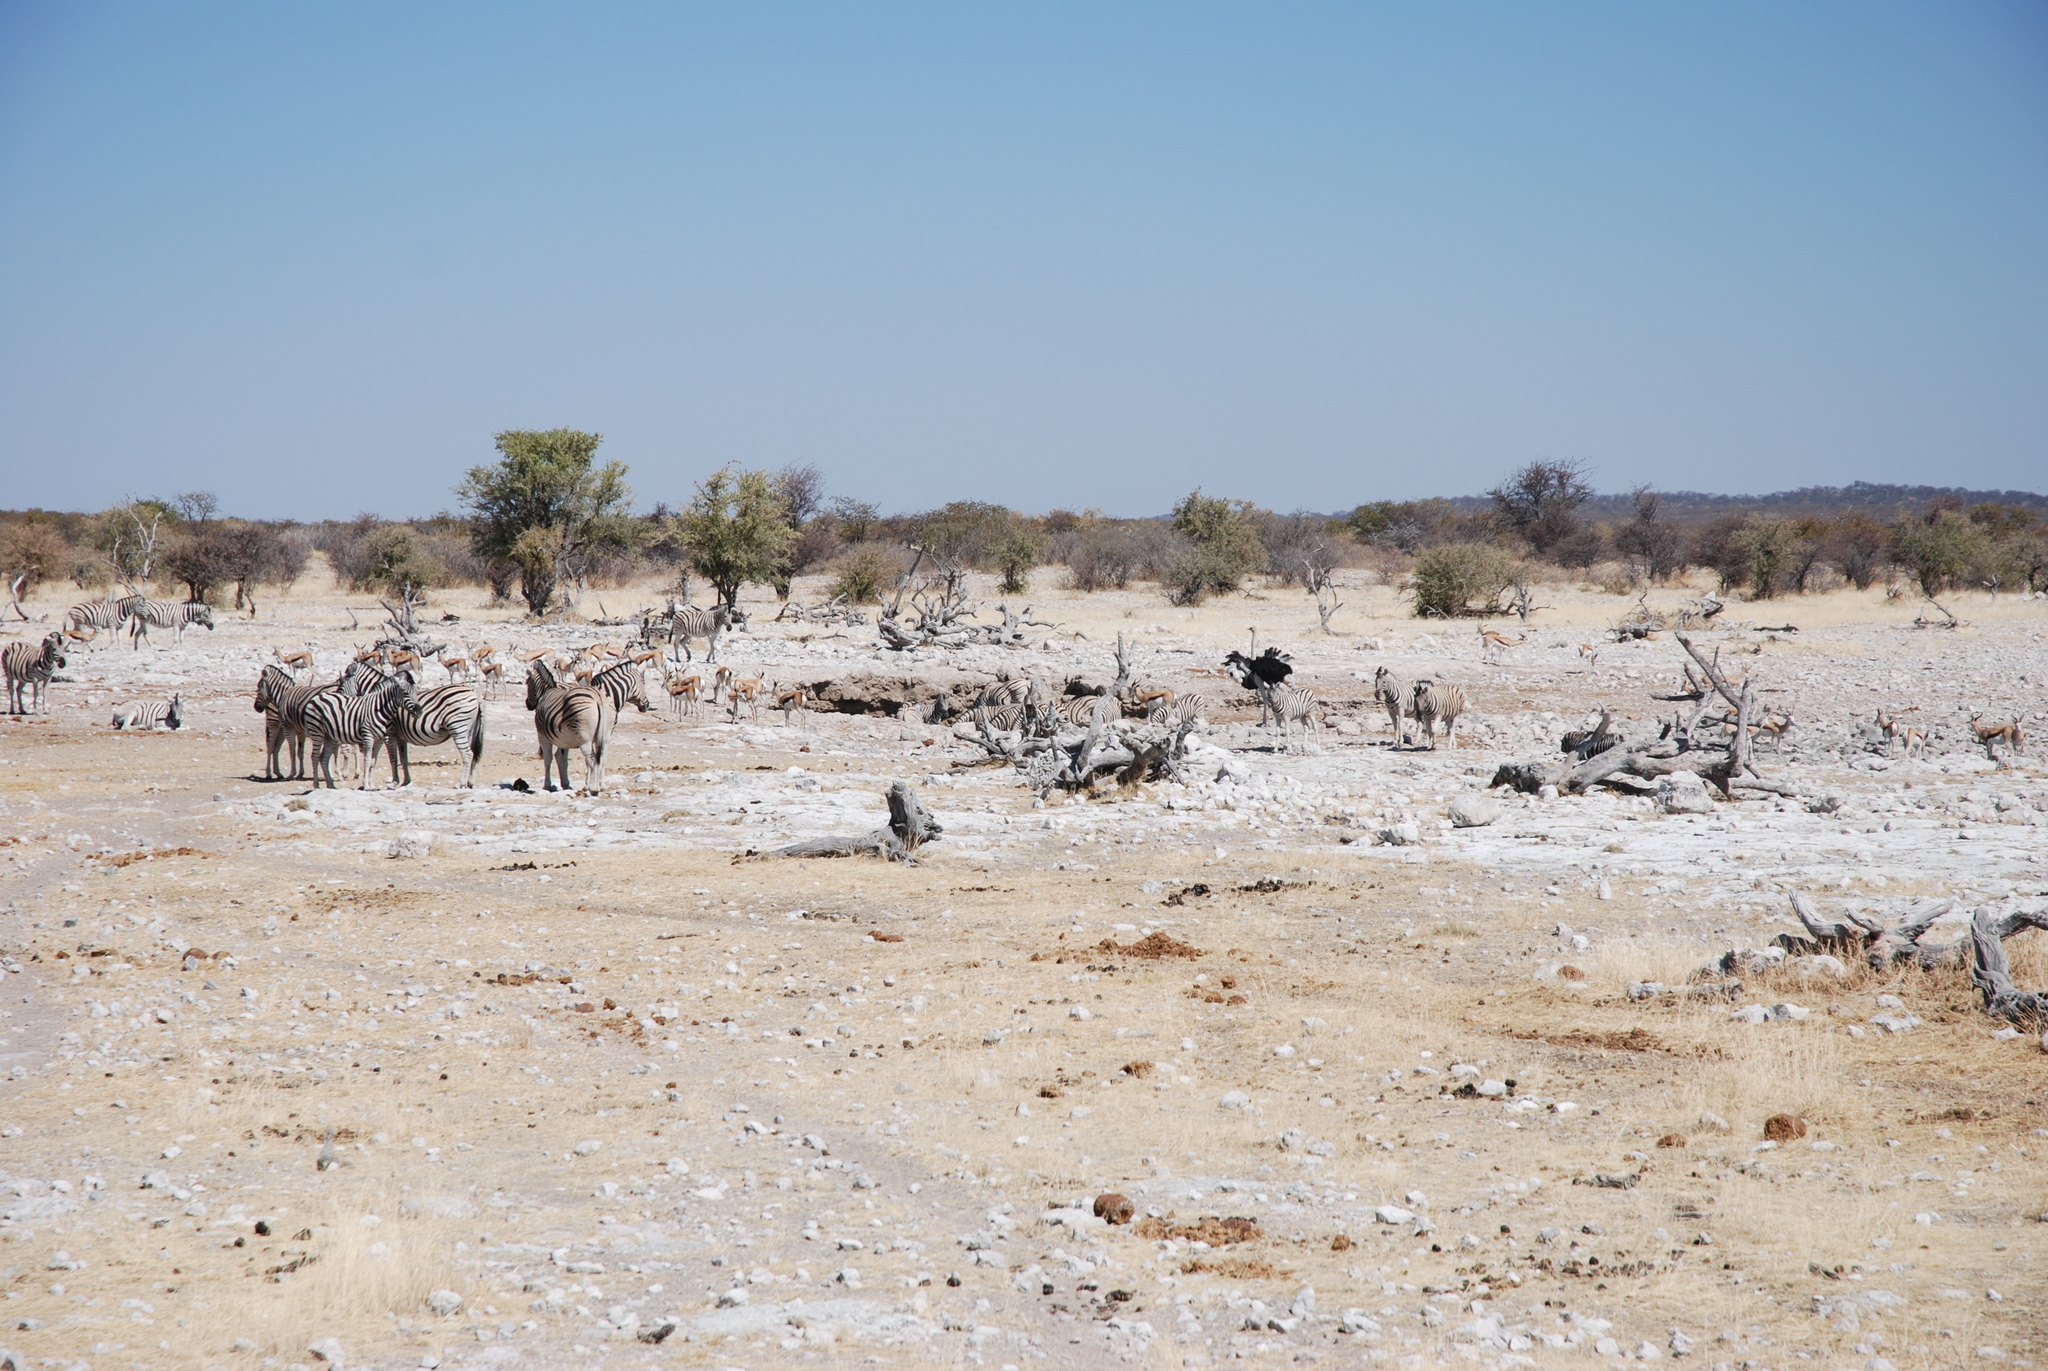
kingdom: Animalia
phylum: Chordata
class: Mammalia
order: Perissodactyla
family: Equidae
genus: Equus
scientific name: Equus quagga
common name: Plains zebra
